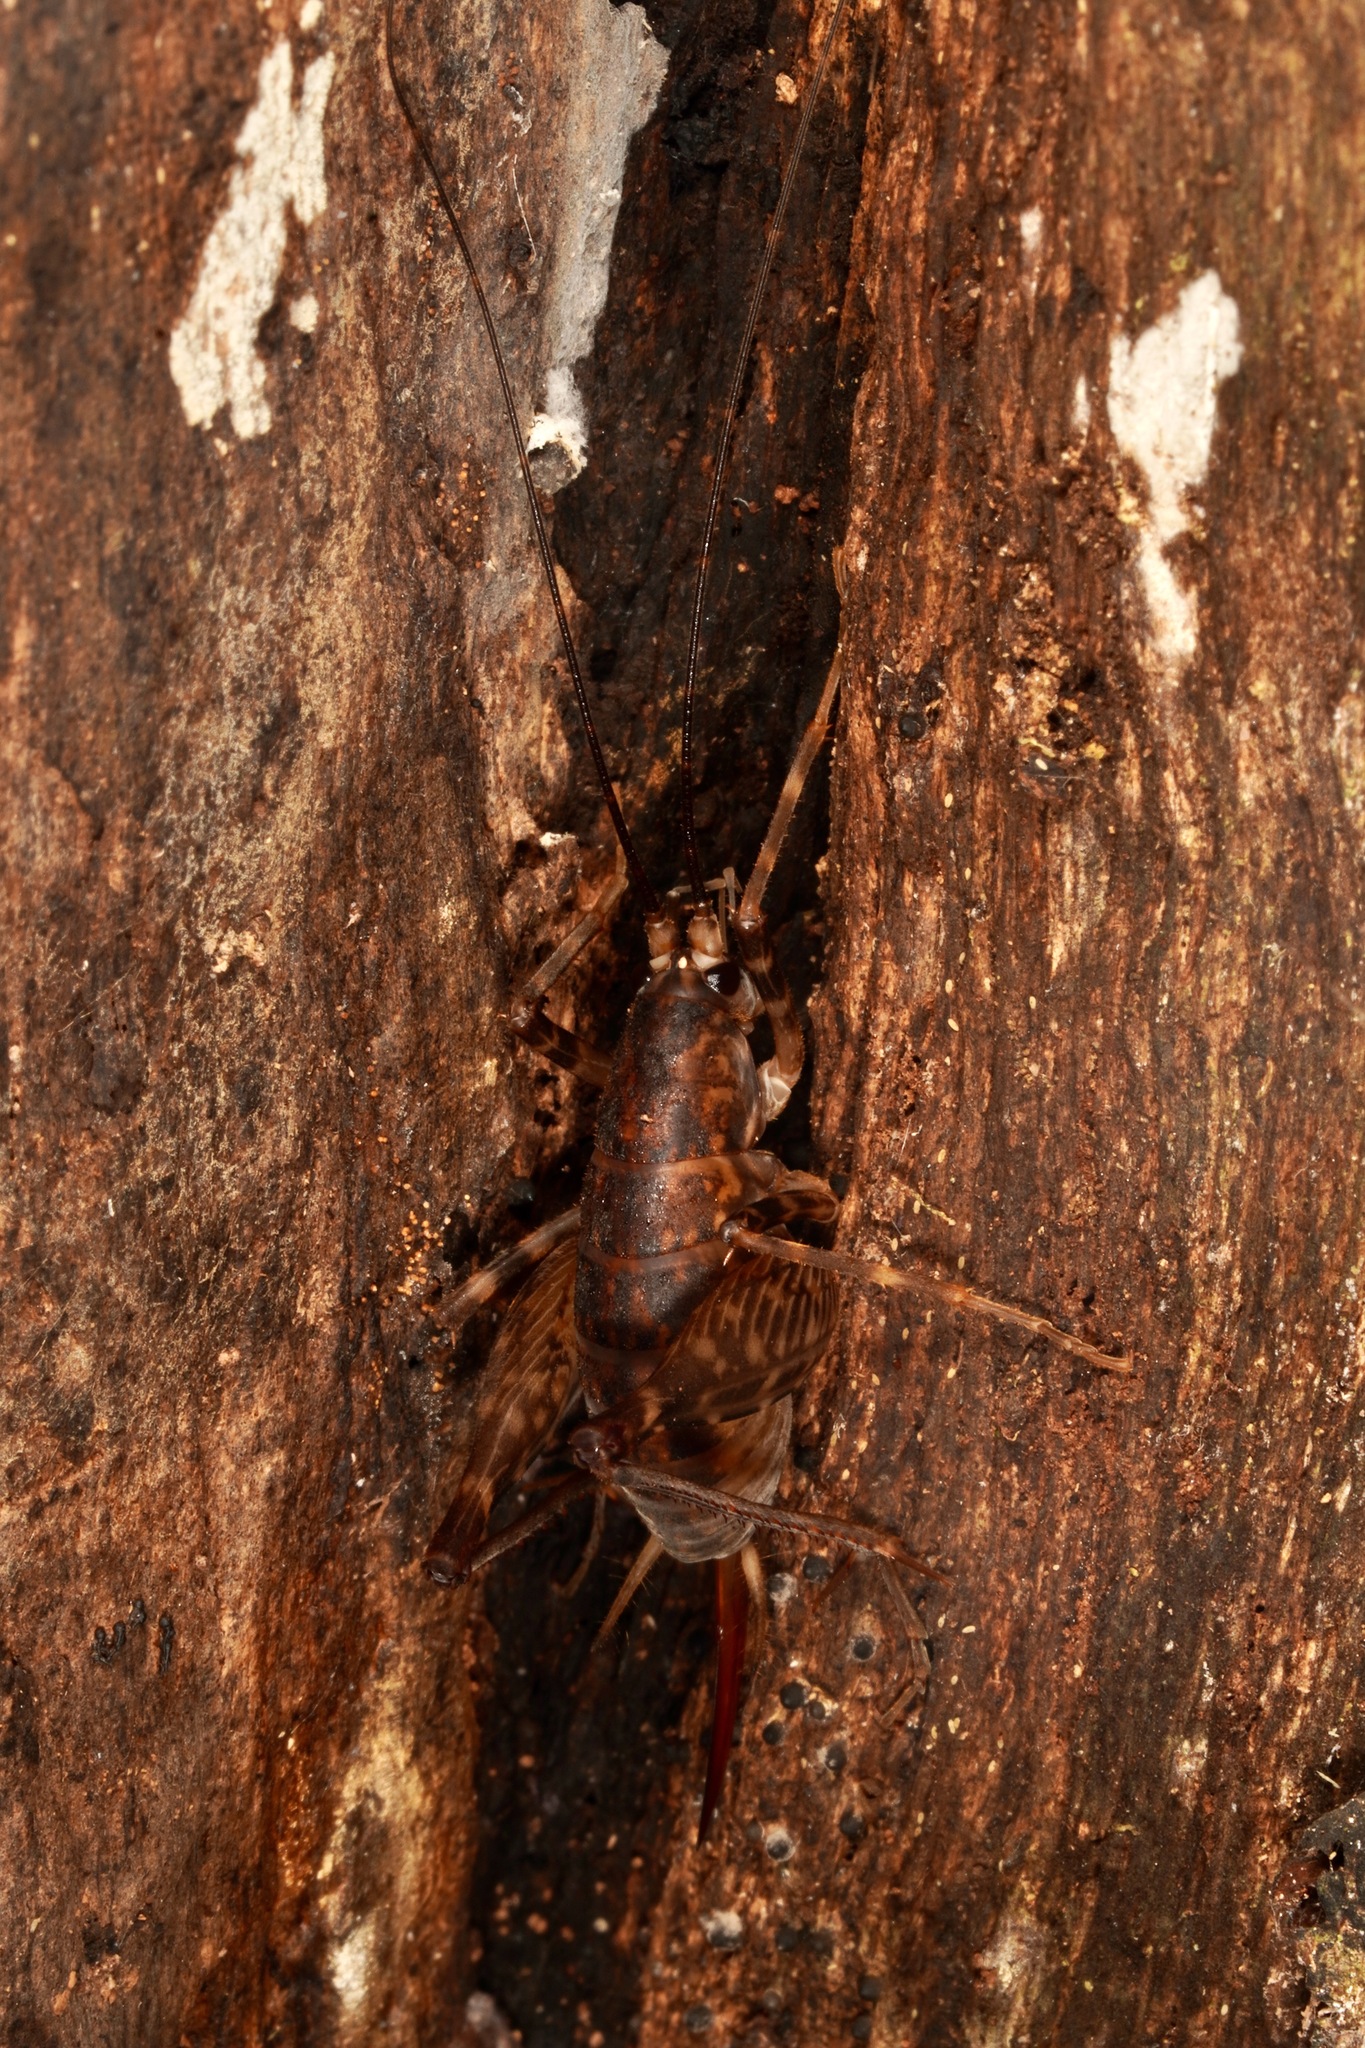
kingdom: Animalia
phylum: Arthropoda
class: Insecta
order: Orthoptera
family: Rhaphidophoridae
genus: Miotopus
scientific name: Miotopus diversus
